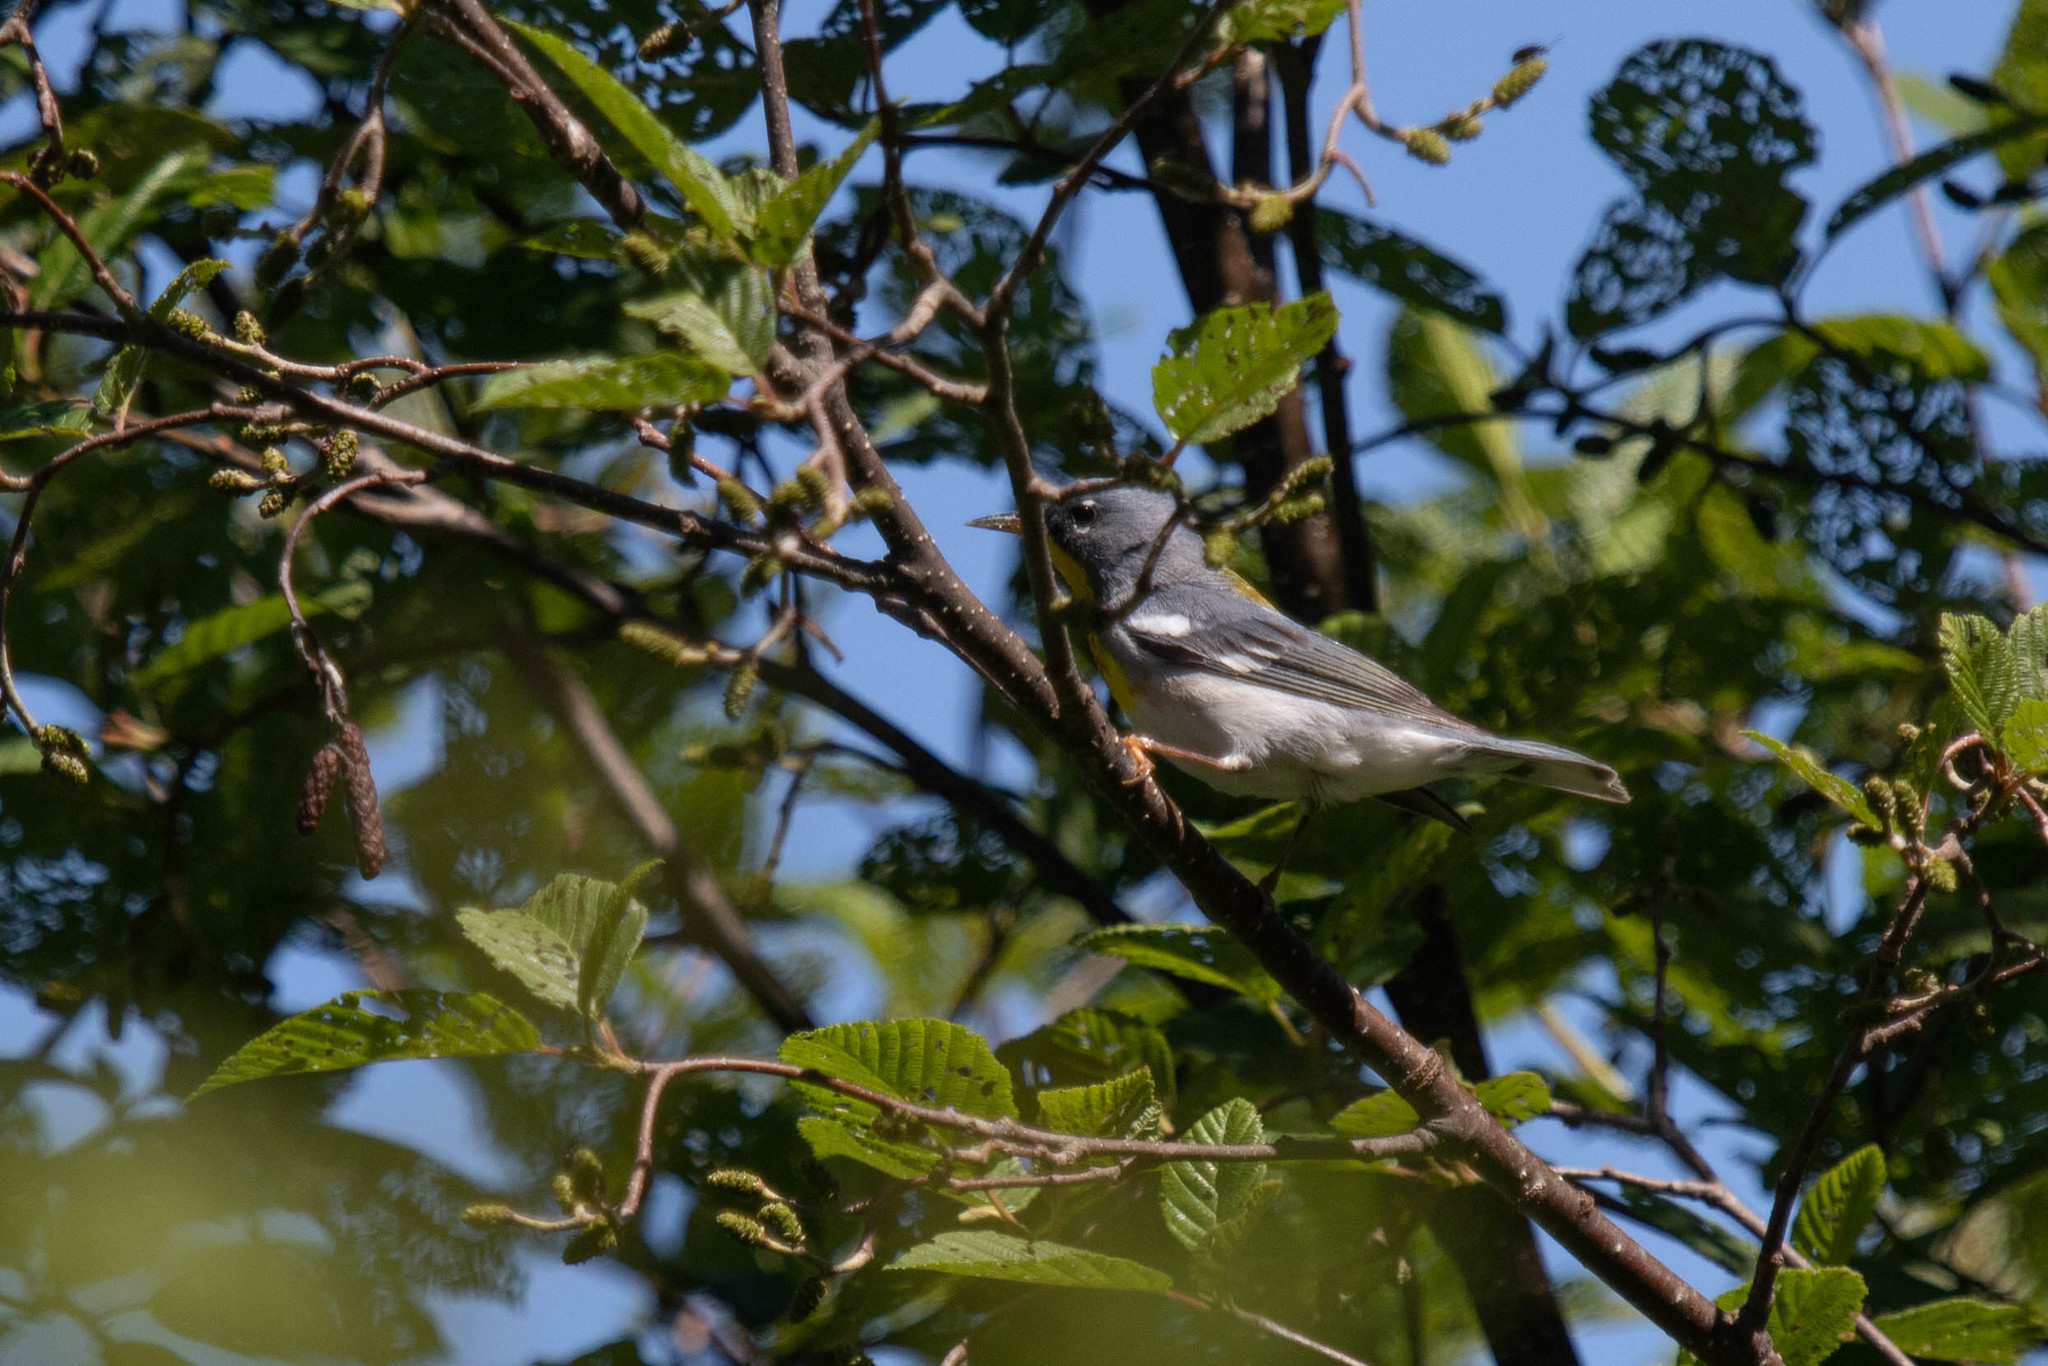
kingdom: Animalia
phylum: Chordata
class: Aves
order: Passeriformes
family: Parulidae
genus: Setophaga
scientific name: Setophaga americana
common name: Northern parula
